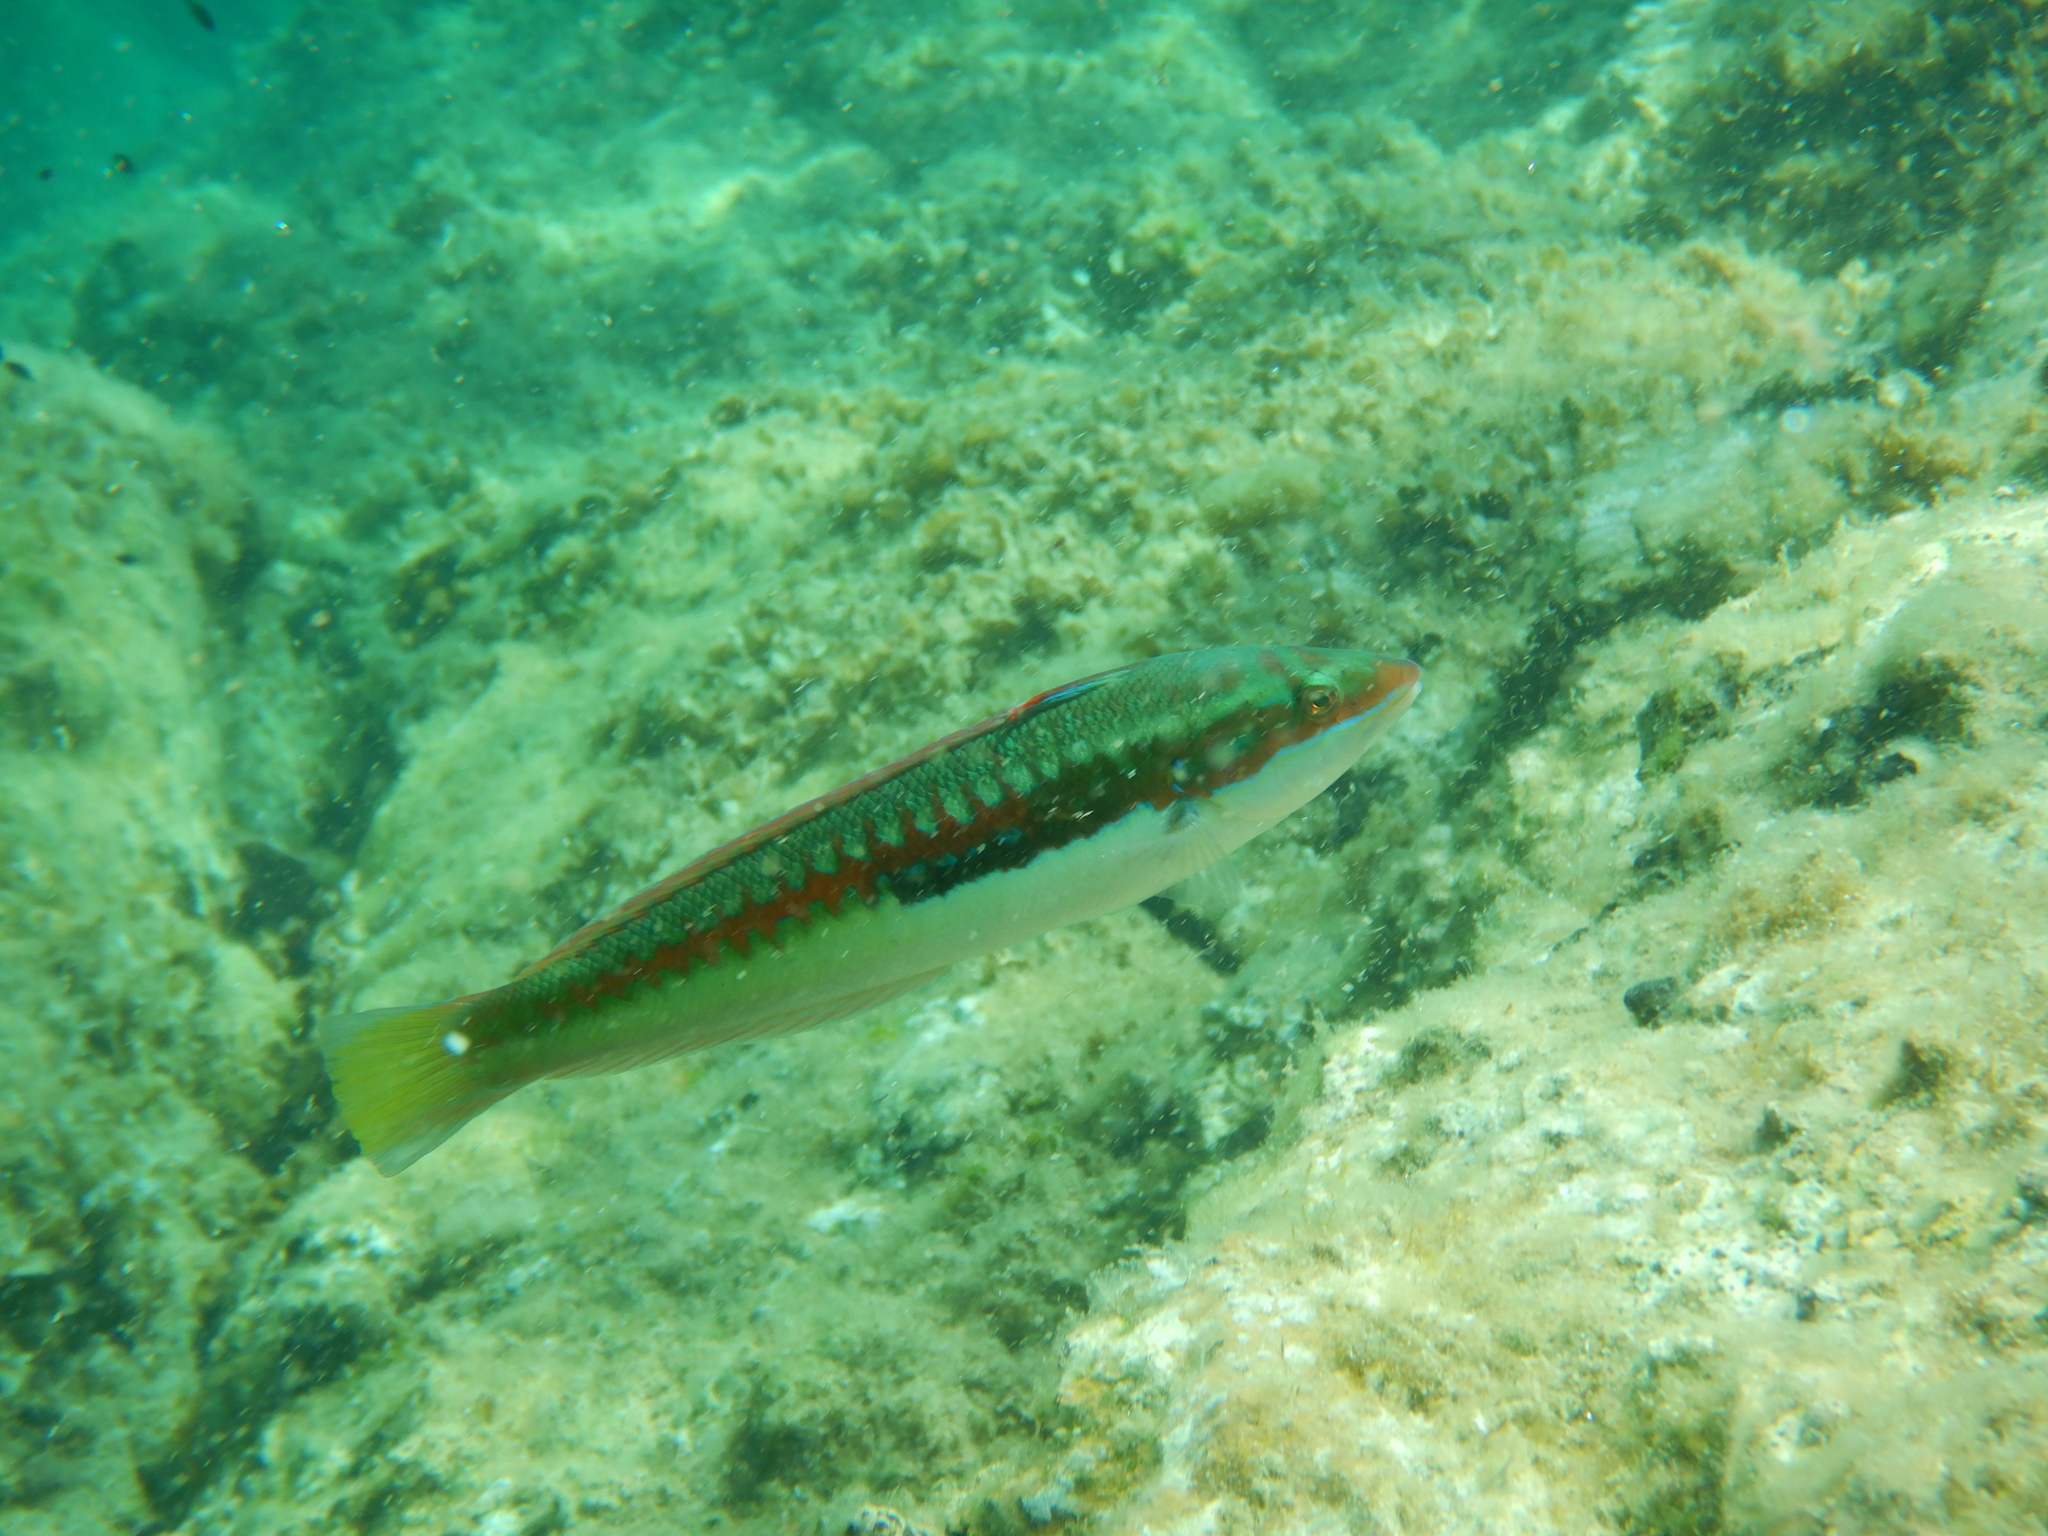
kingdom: Animalia
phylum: Chordata
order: Perciformes
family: Labridae
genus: Coris
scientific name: Coris julis
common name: Rainbow wrasse
